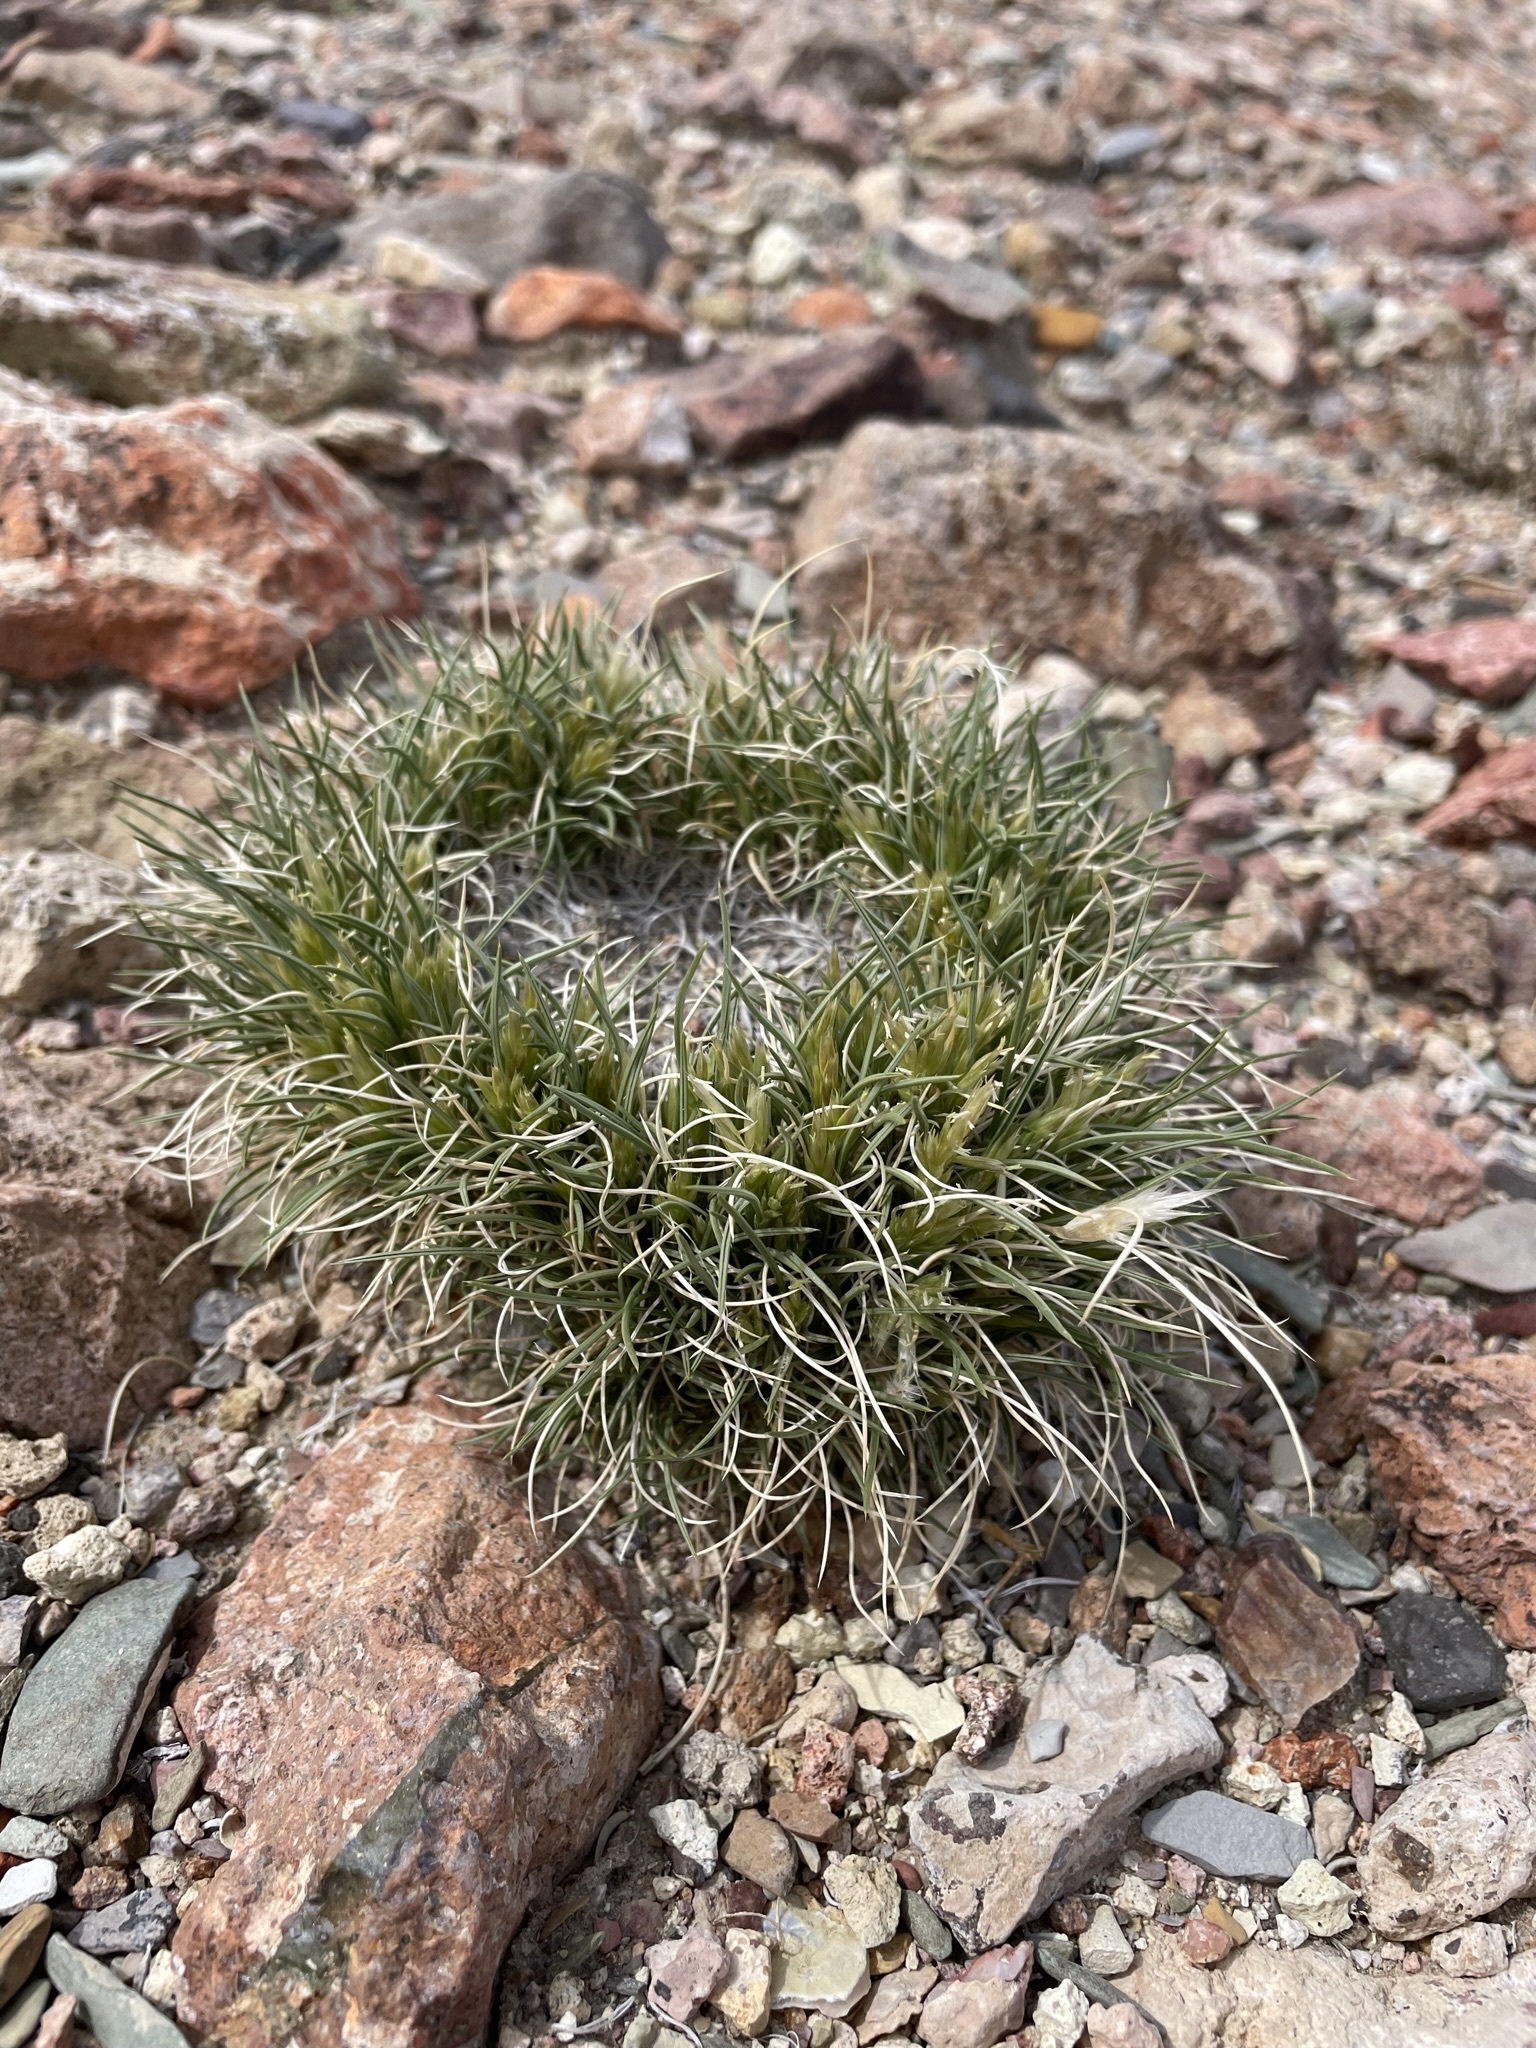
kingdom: Plantae
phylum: Tracheophyta
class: Liliopsida
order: Poales
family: Poaceae
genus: Blepharidachne
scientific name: Blepharidachne kingii
